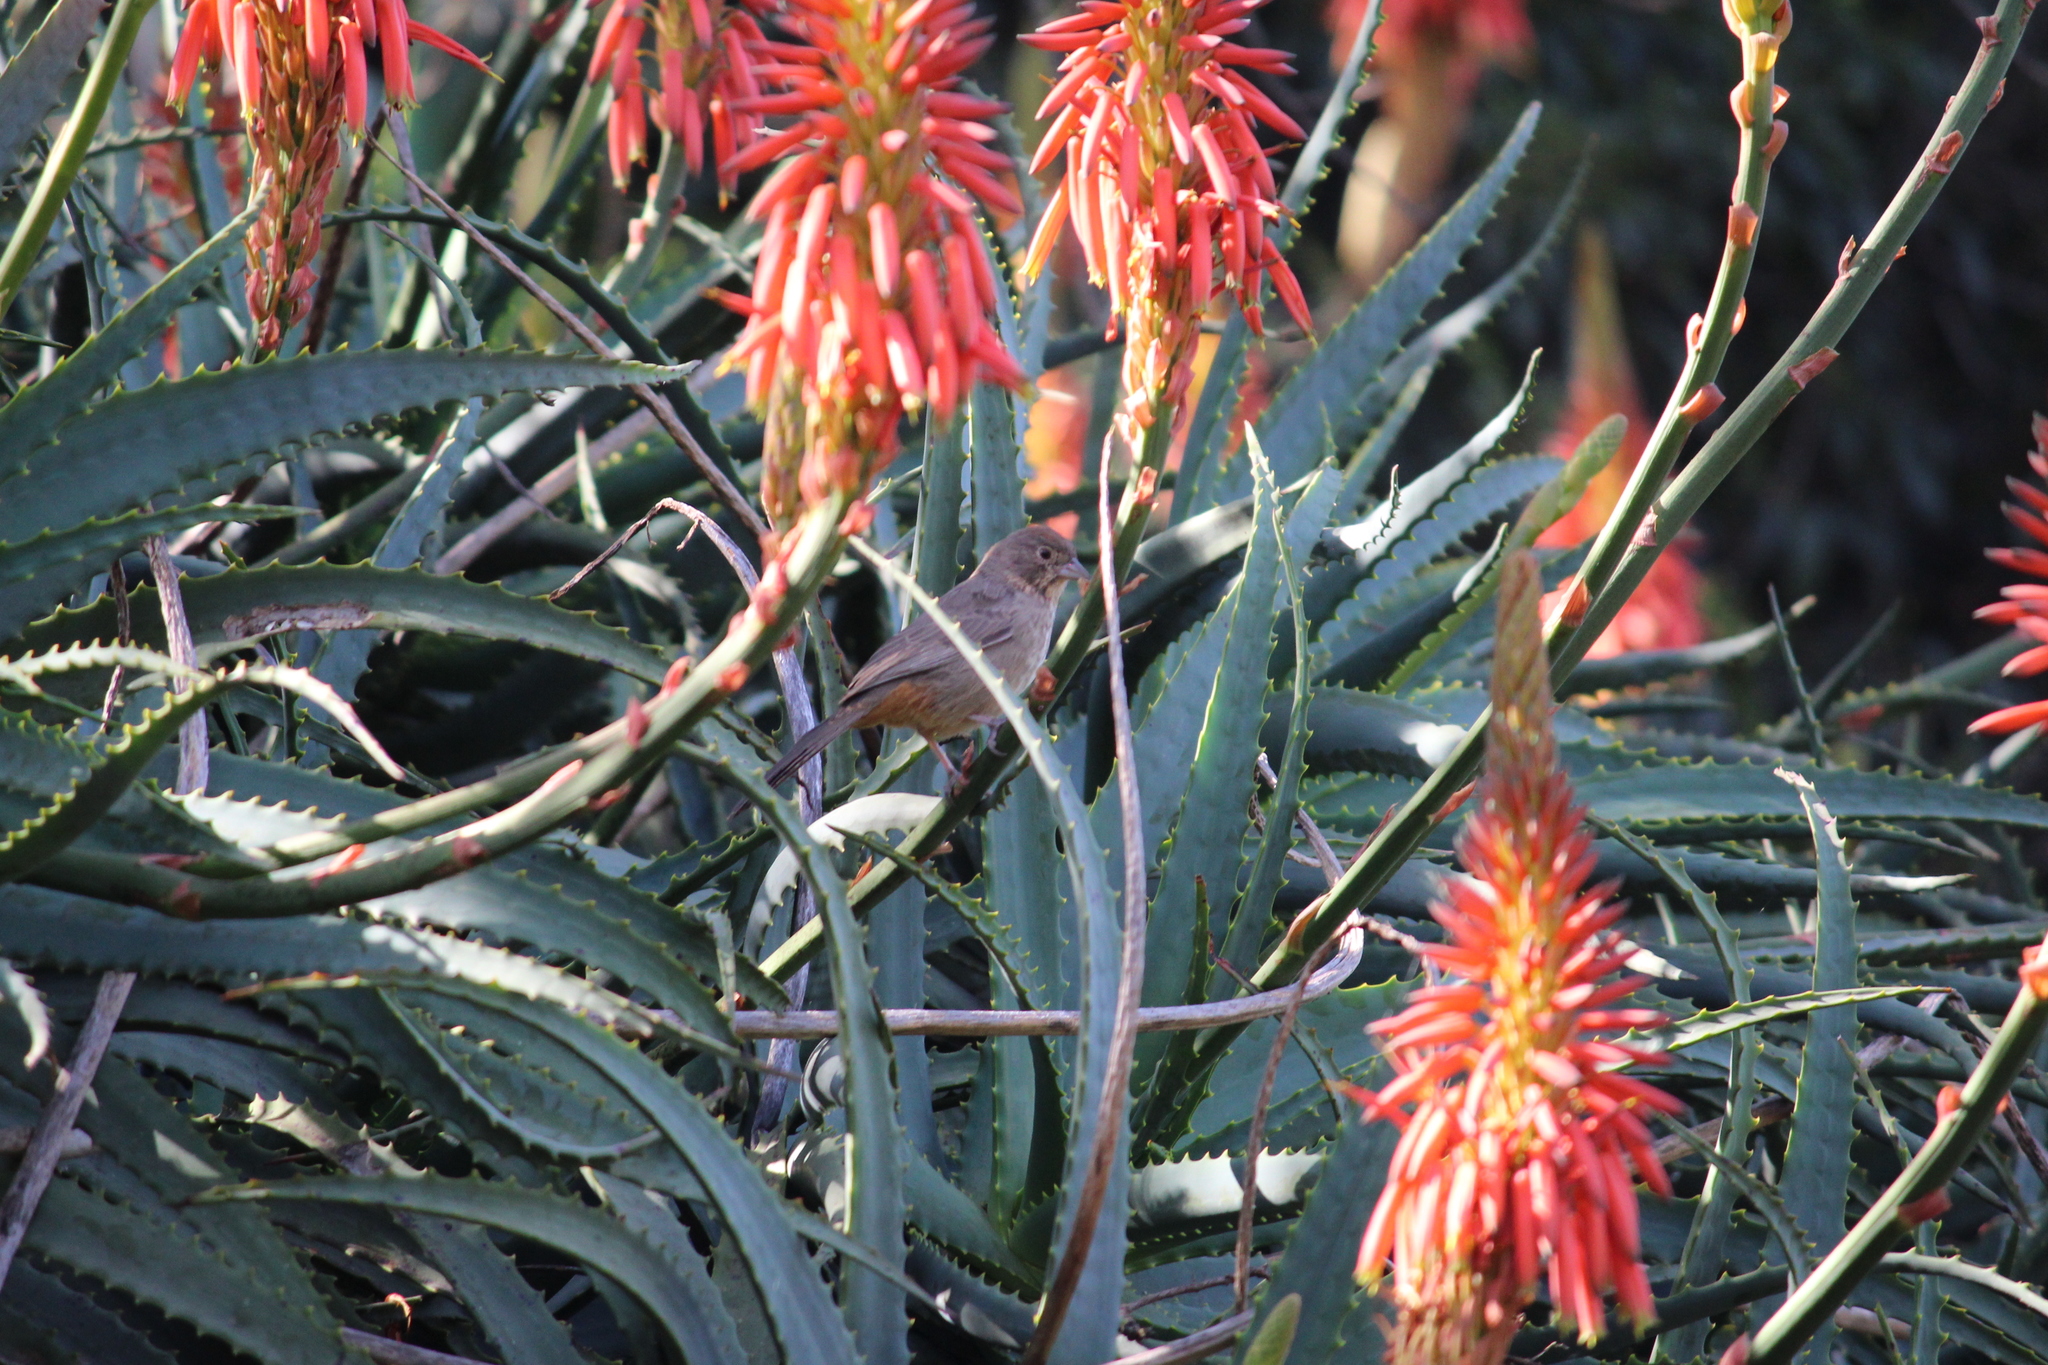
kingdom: Animalia
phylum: Chordata
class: Aves
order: Passeriformes
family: Passerellidae
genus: Melozone
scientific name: Melozone fusca
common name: Canyon towhee
